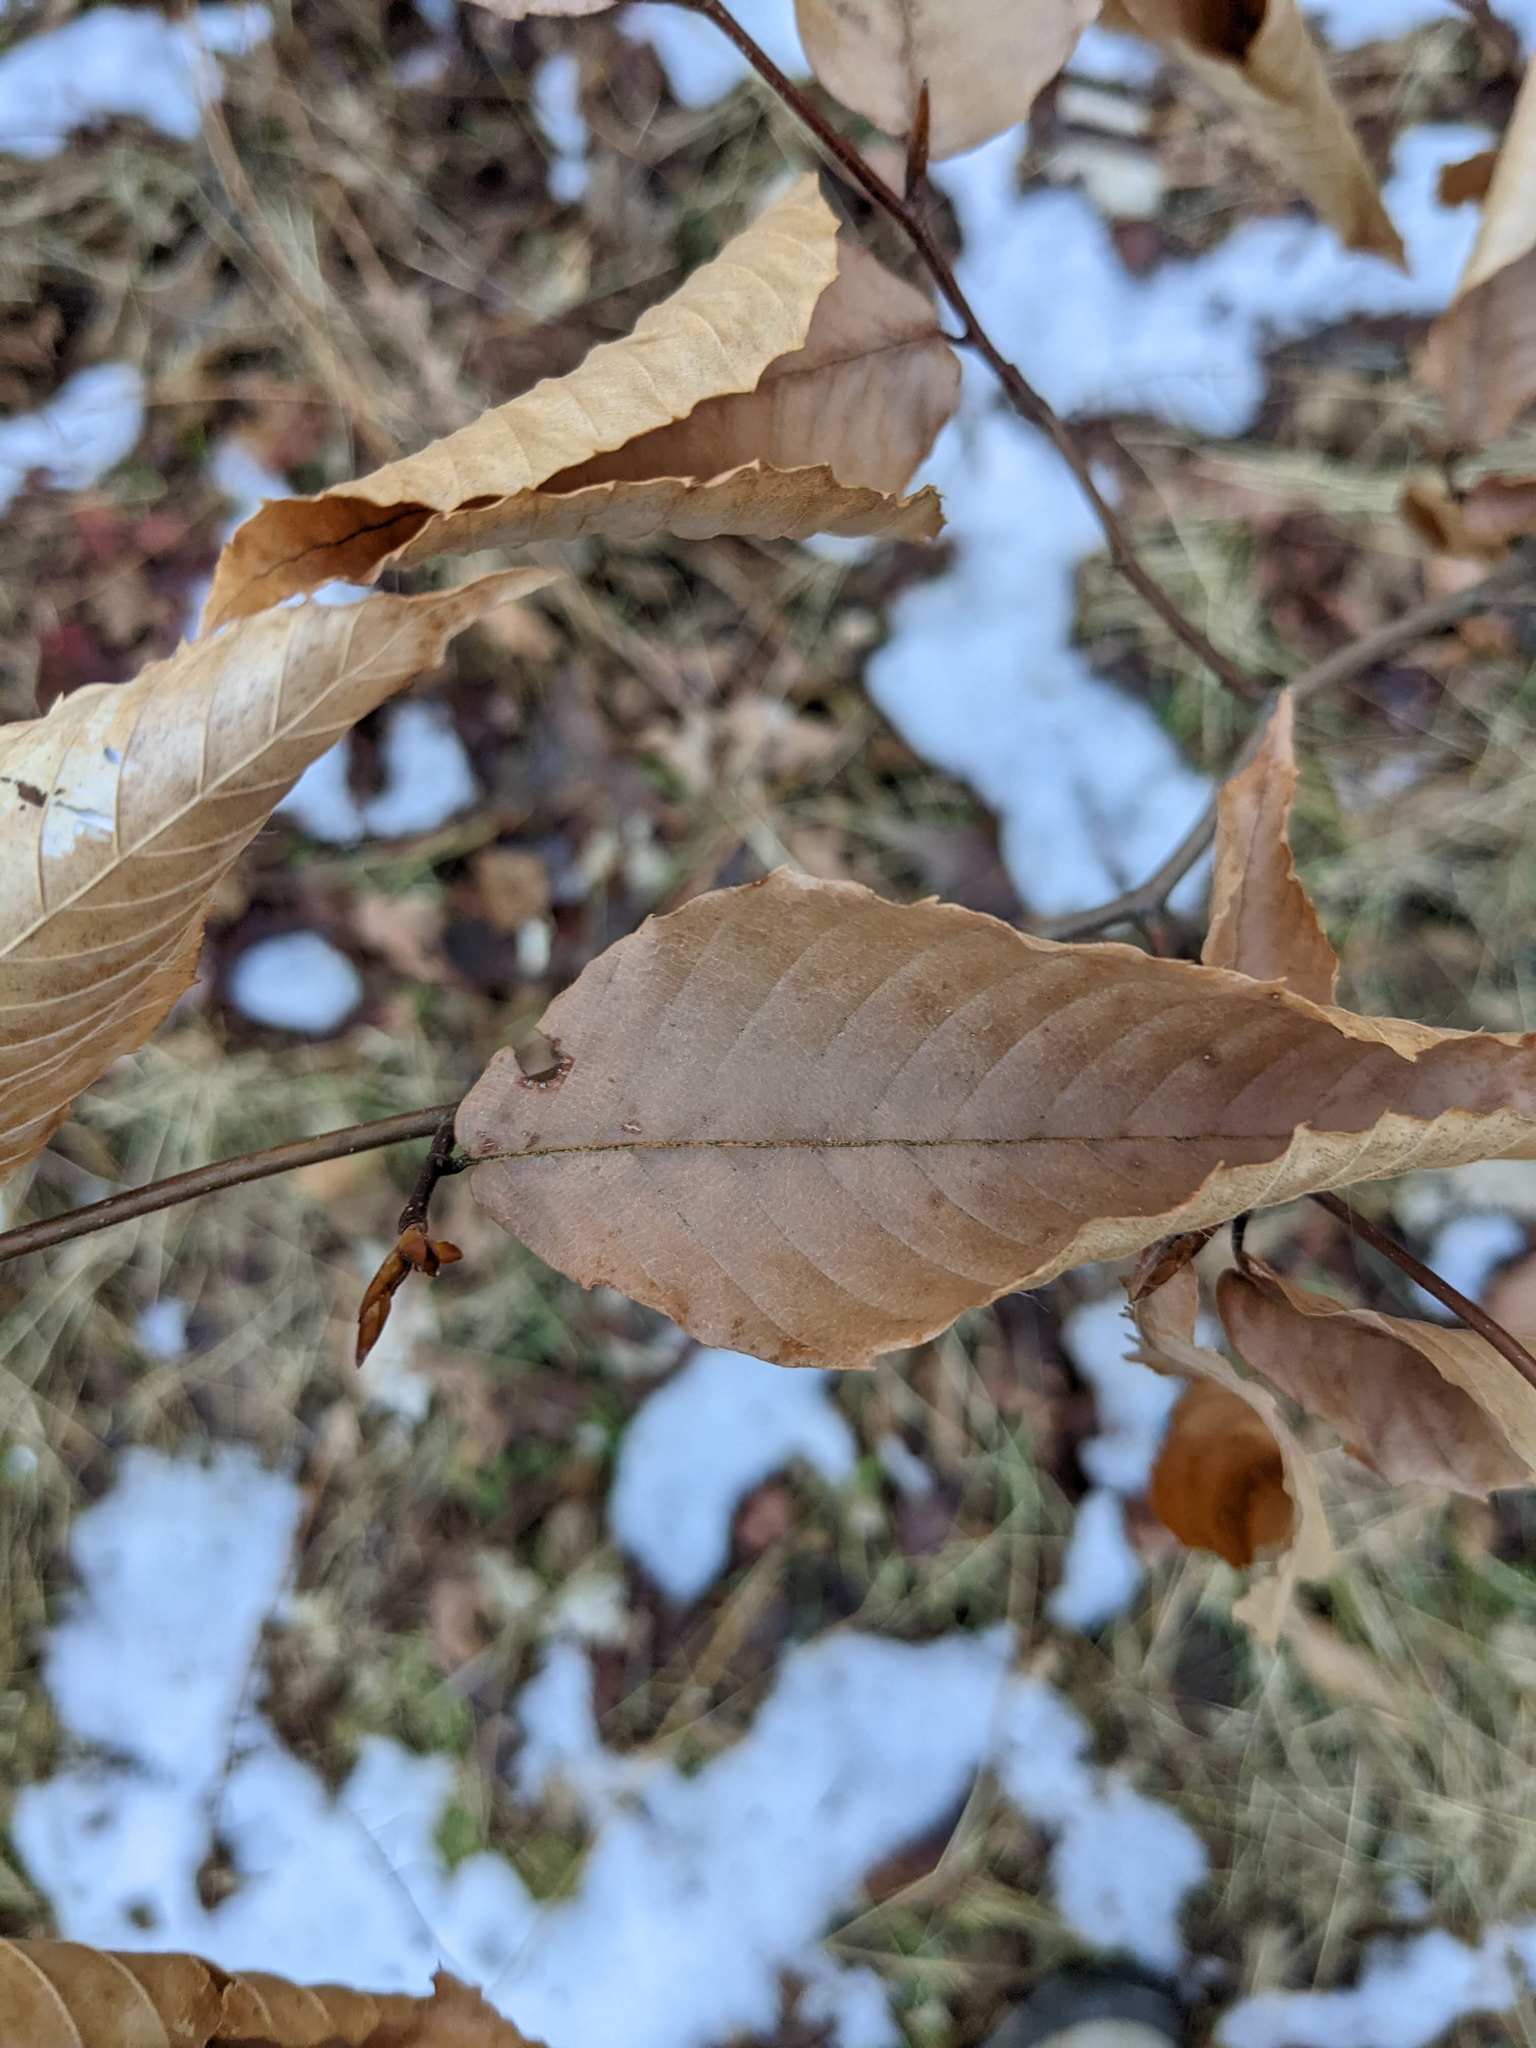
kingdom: Plantae
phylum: Tracheophyta
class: Magnoliopsida
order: Fagales
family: Fagaceae
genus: Fagus
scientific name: Fagus grandifolia
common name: American beech
